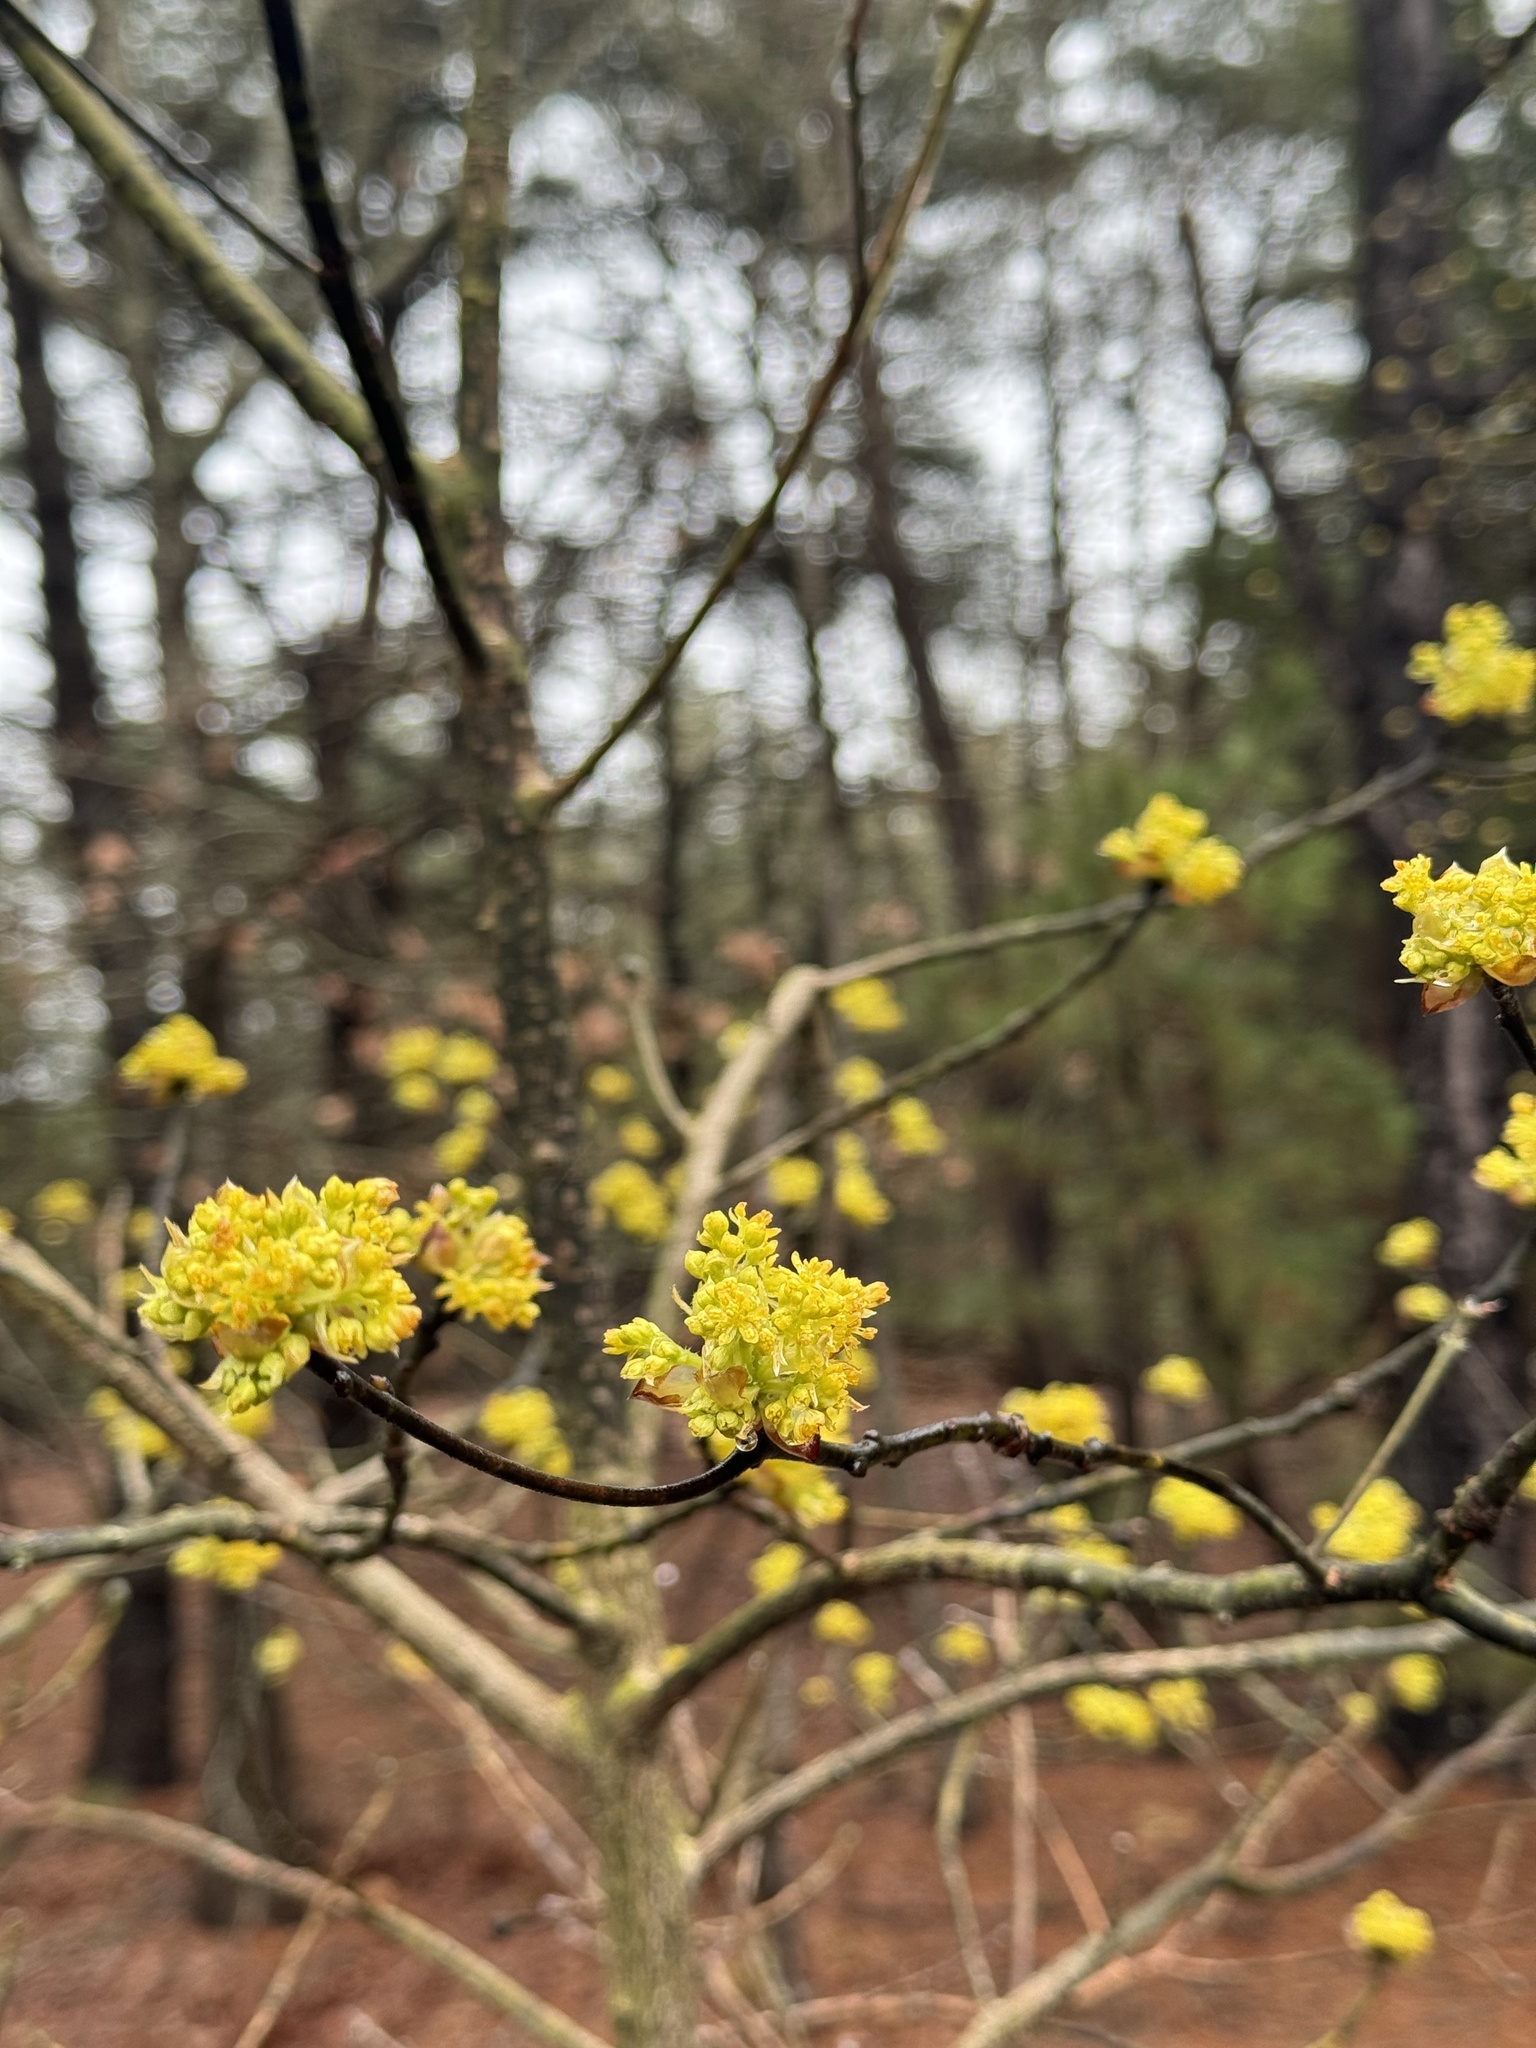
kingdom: Plantae
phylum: Tracheophyta
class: Magnoliopsida
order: Laurales
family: Lauraceae
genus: Sassafras
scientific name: Sassafras albidum
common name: Sassafras
